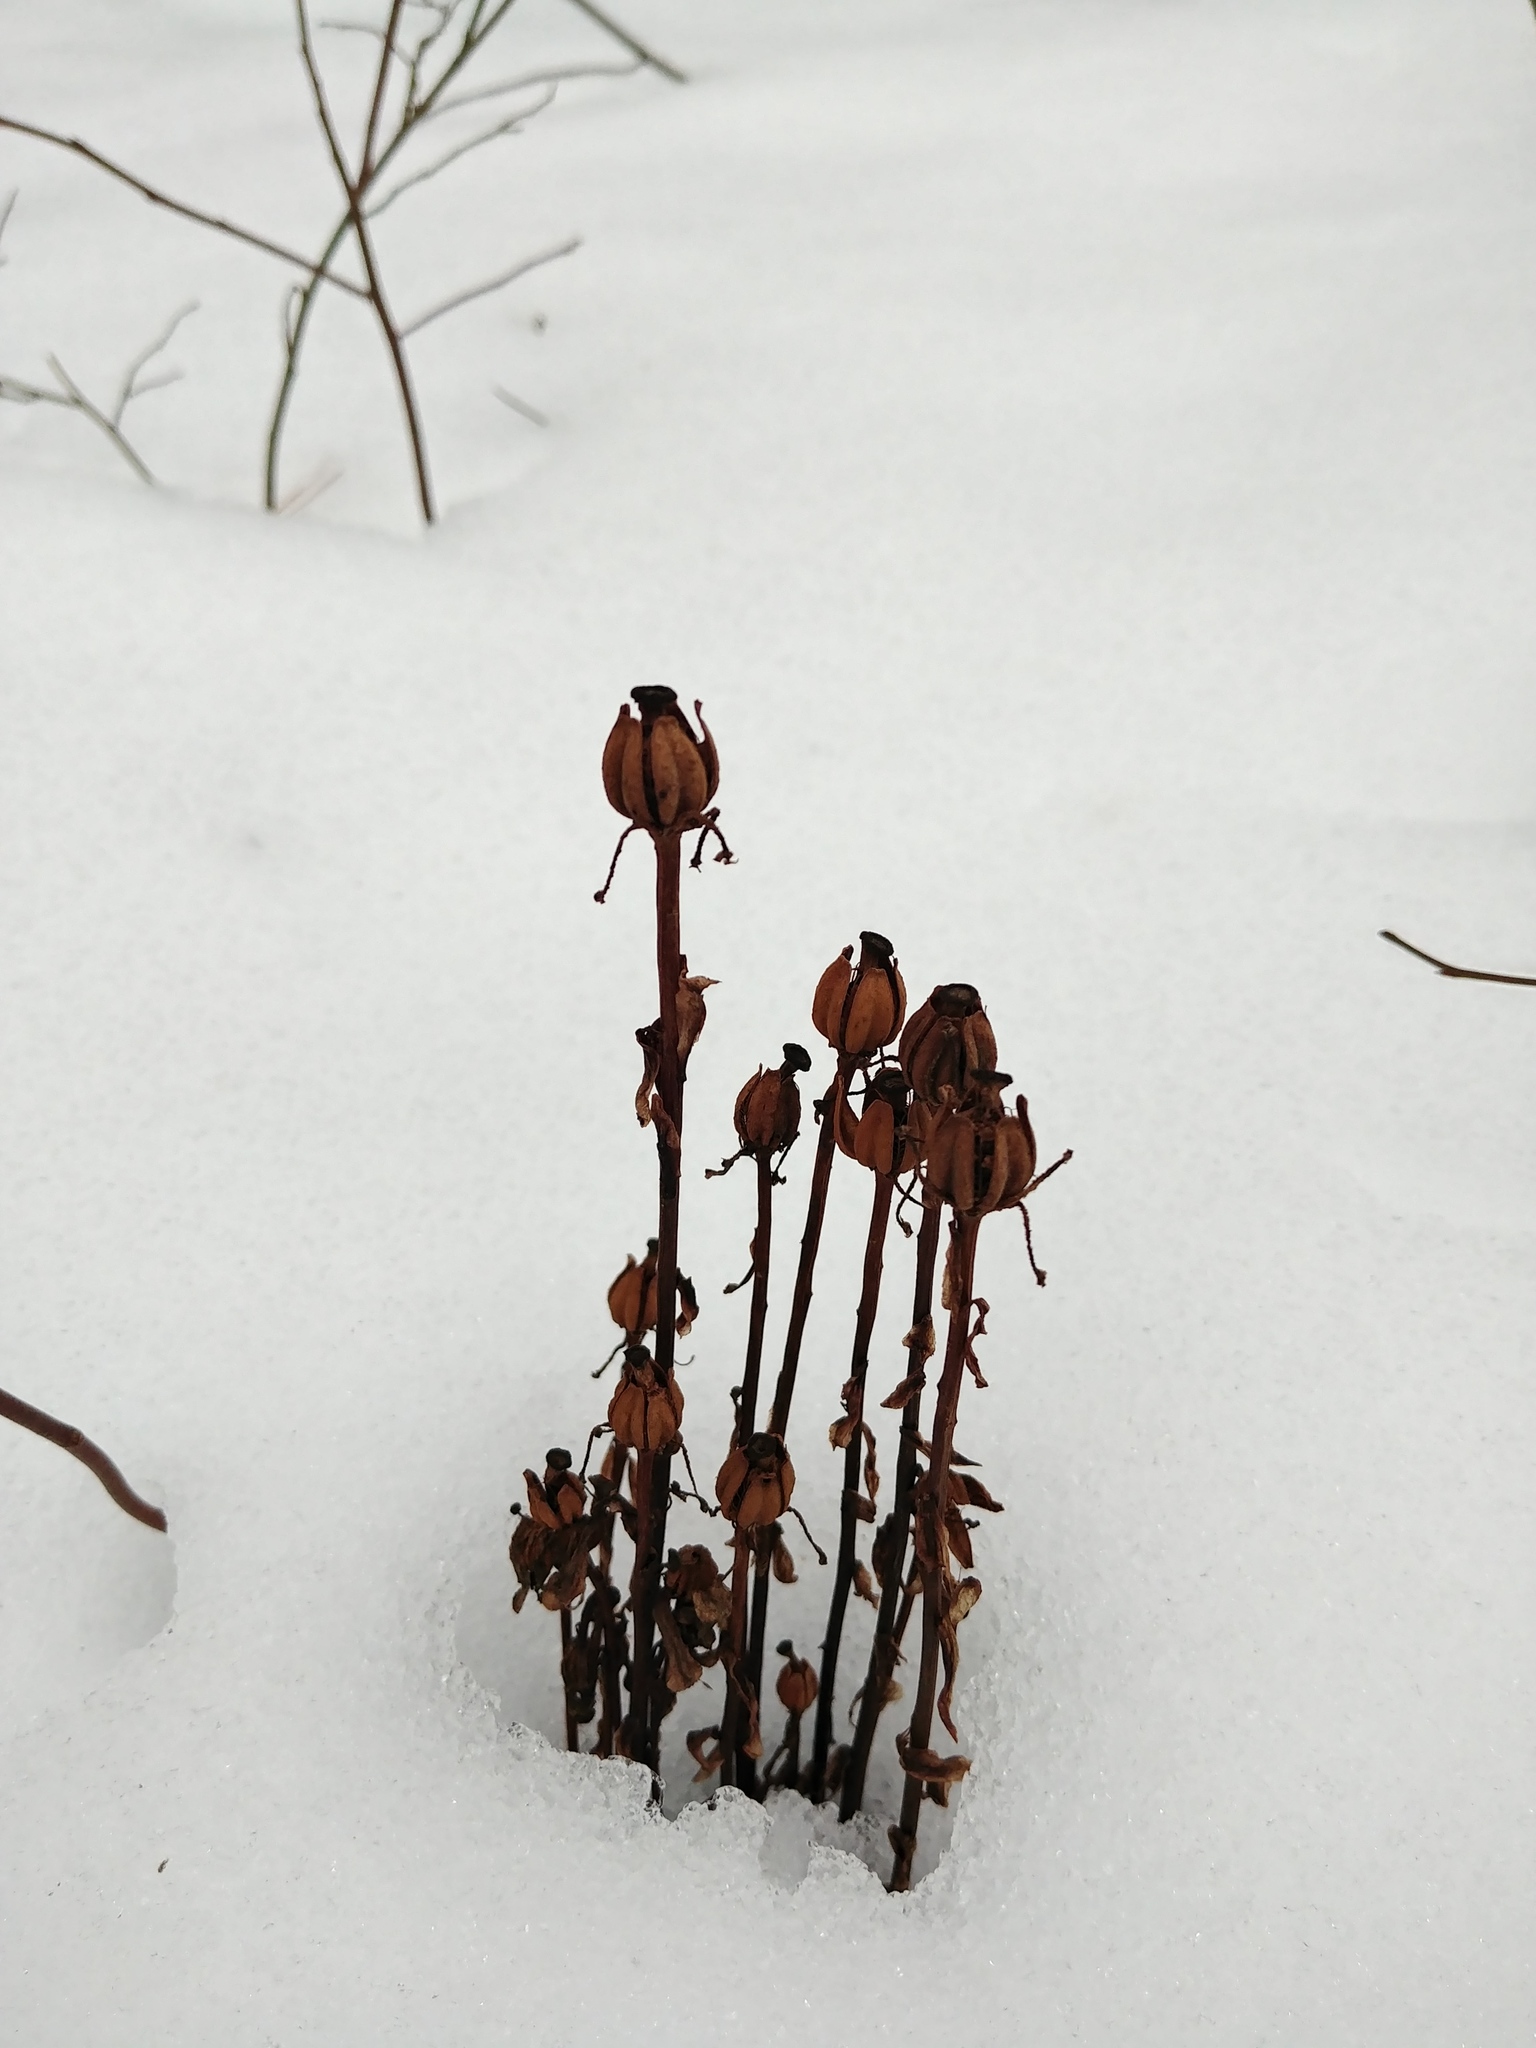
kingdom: Plantae
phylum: Tracheophyta
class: Magnoliopsida
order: Ericales
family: Ericaceae
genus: Monotropa
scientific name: Monotropa uniflora
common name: Convulsion root
